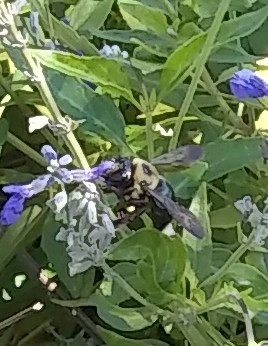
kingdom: Animalia
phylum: Arthropoda
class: Insecta
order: Hymenoptera
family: Apidae
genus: Xylocopa
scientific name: Xylocopa virginica
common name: Carpenter bee
